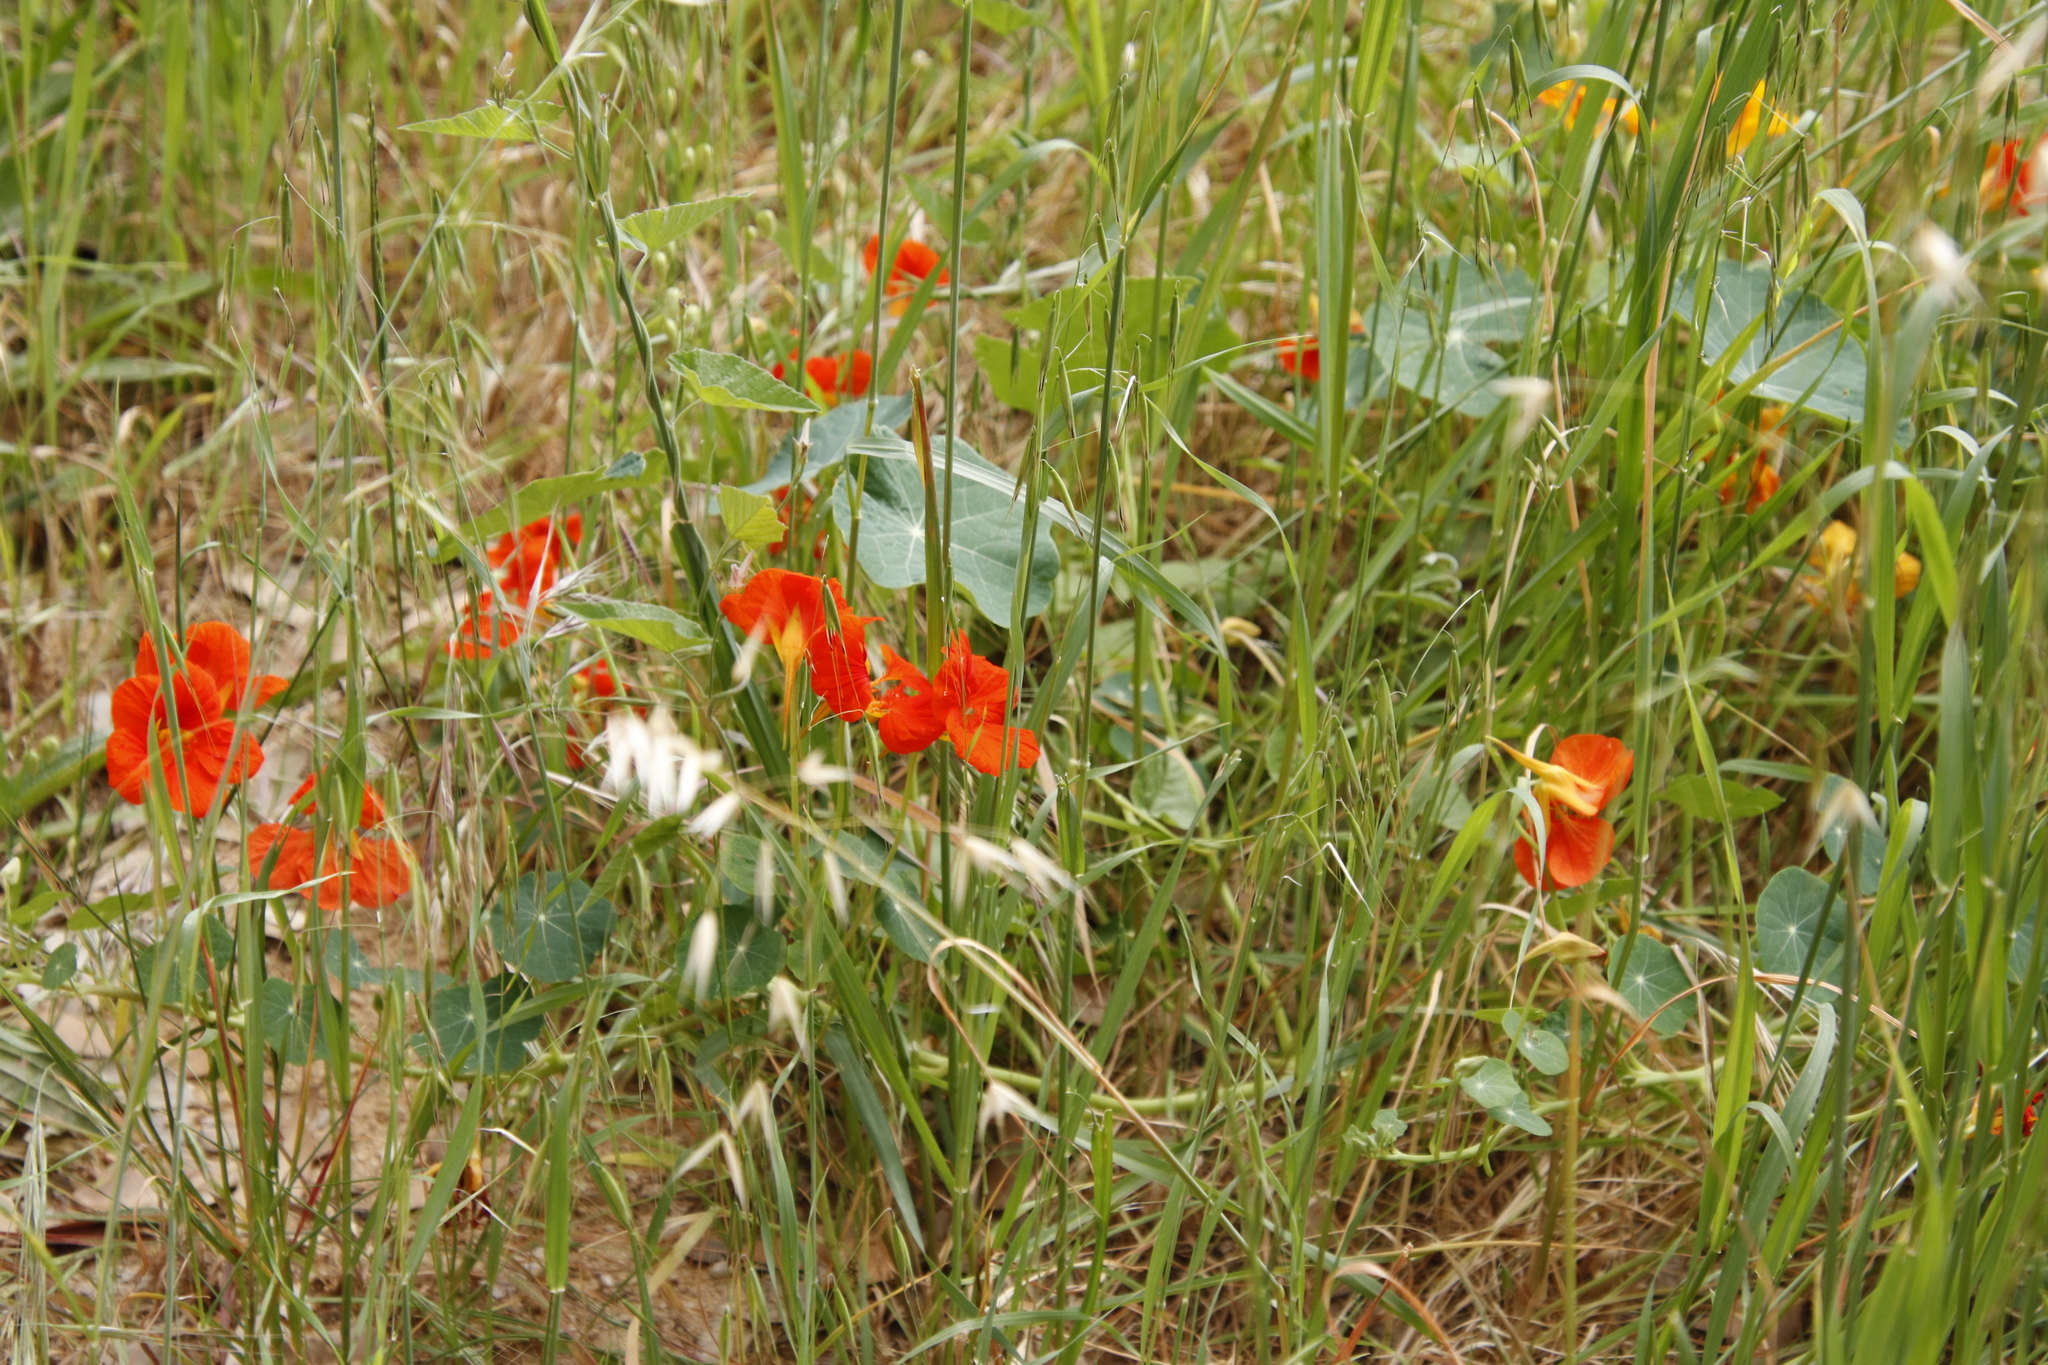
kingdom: Plantae
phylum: Tracheophyta
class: Magnoliopsida
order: Brassicales
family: Tropaeolaceae
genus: Tropaeolum
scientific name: Tropaeolum majus
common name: Nasturtium
